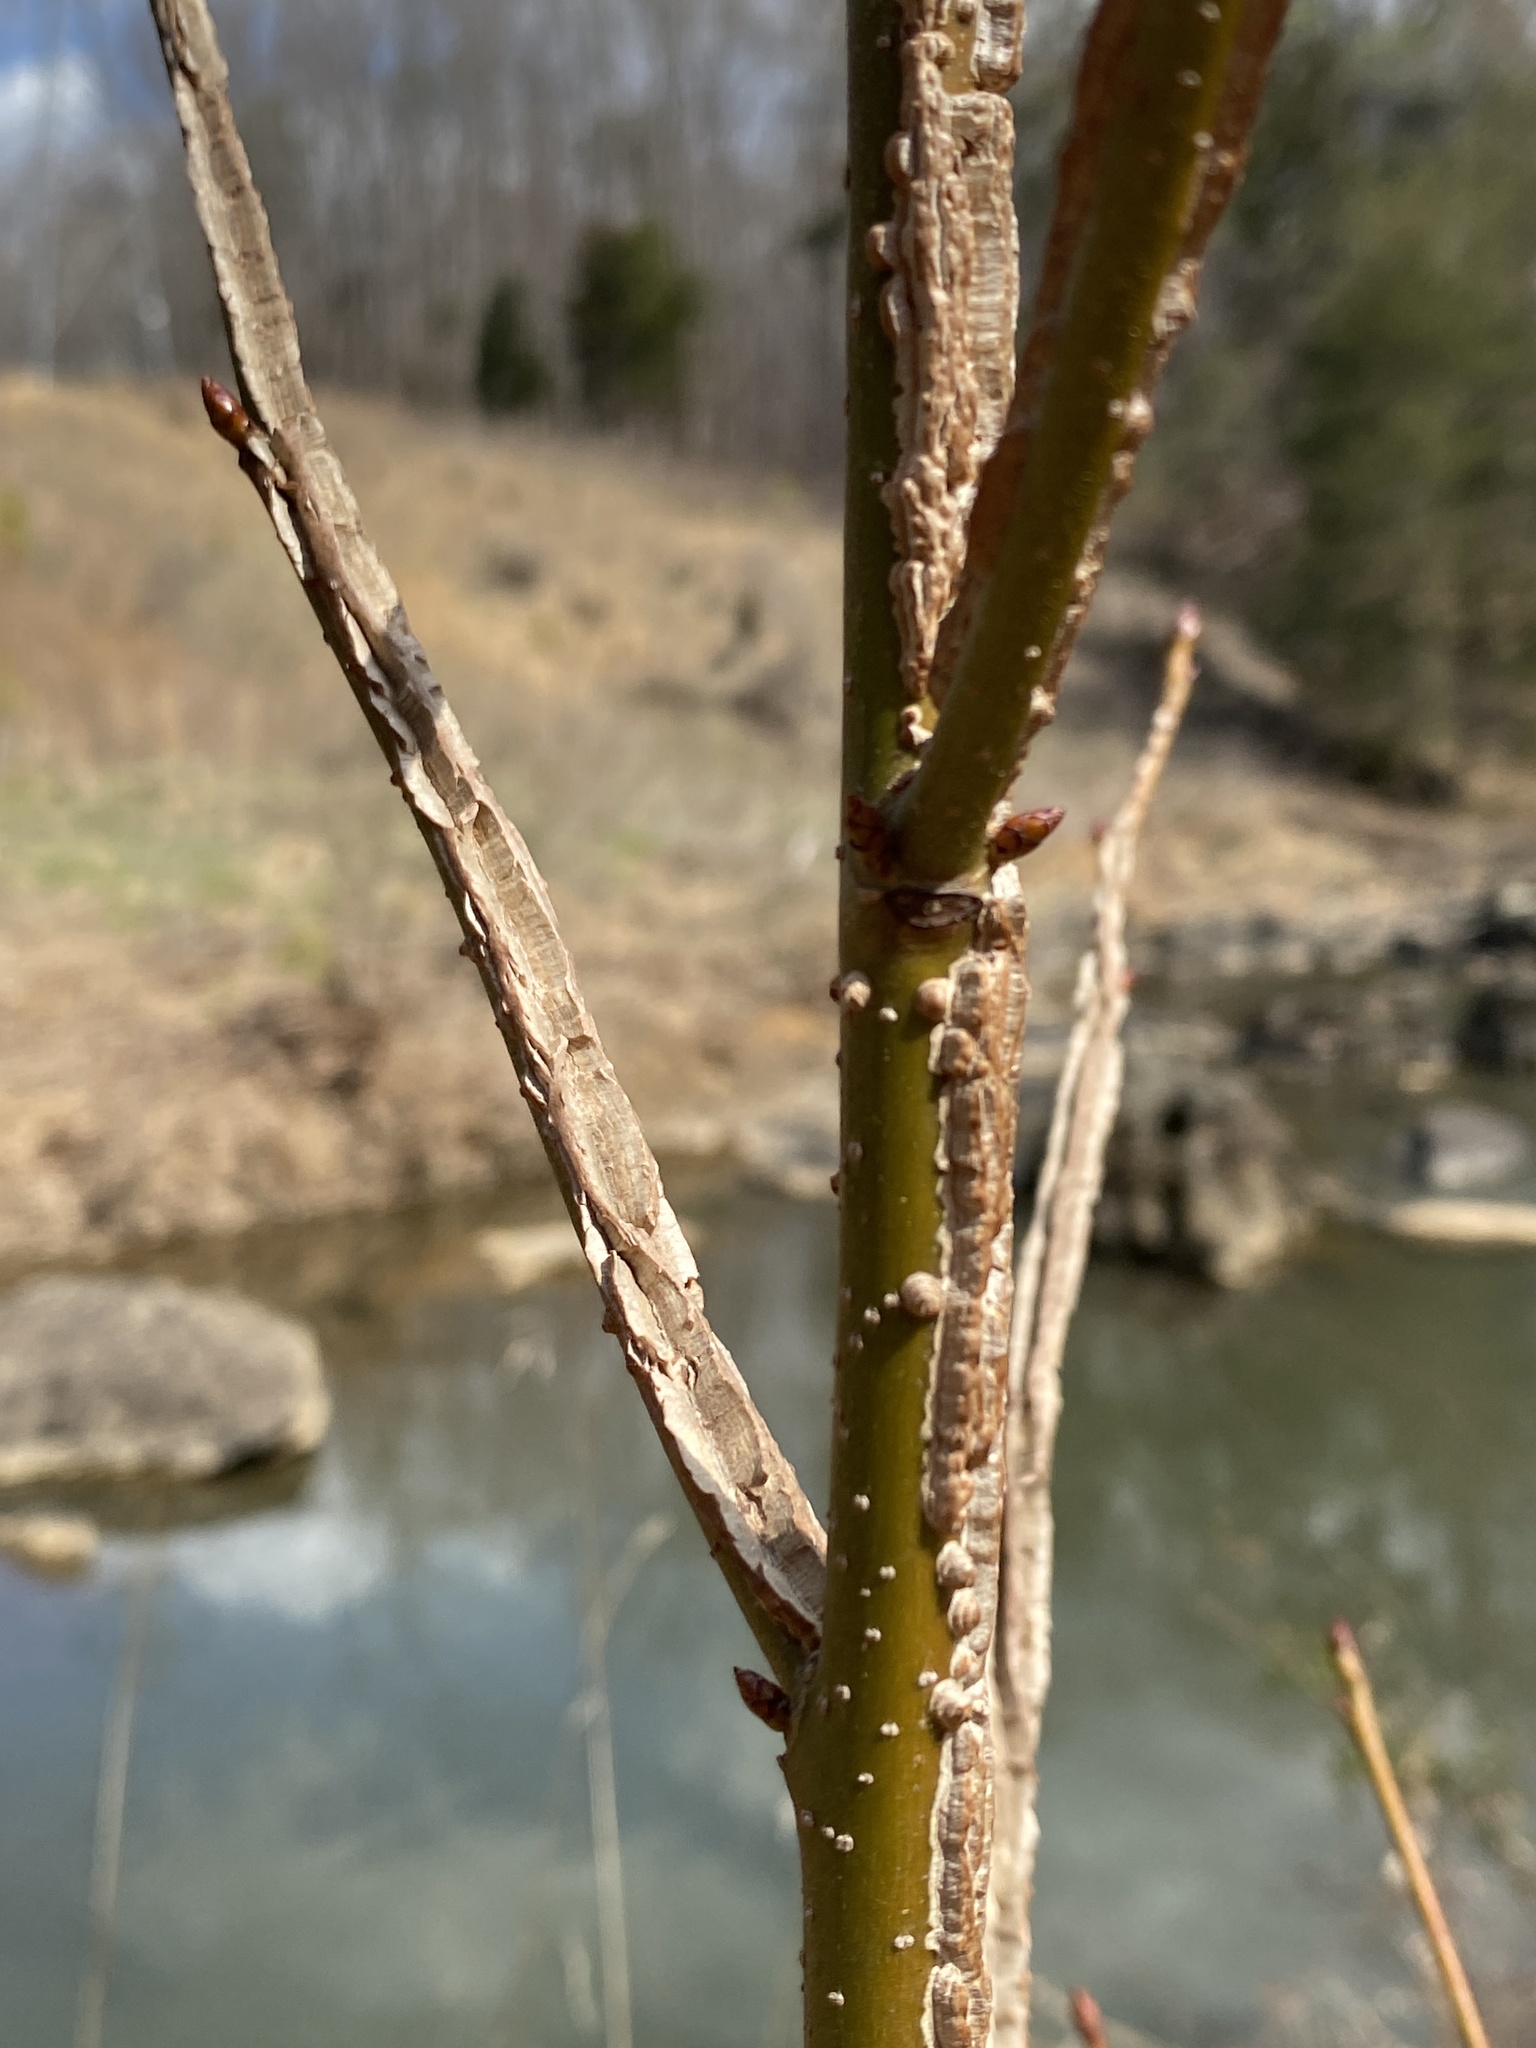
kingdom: Plantae
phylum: Tracheophyta
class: Magnoliopsida
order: Saxifragales
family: Altingiaceae
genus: Liquidambar
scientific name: Liquidambar styraciflua
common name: Sweet gum
